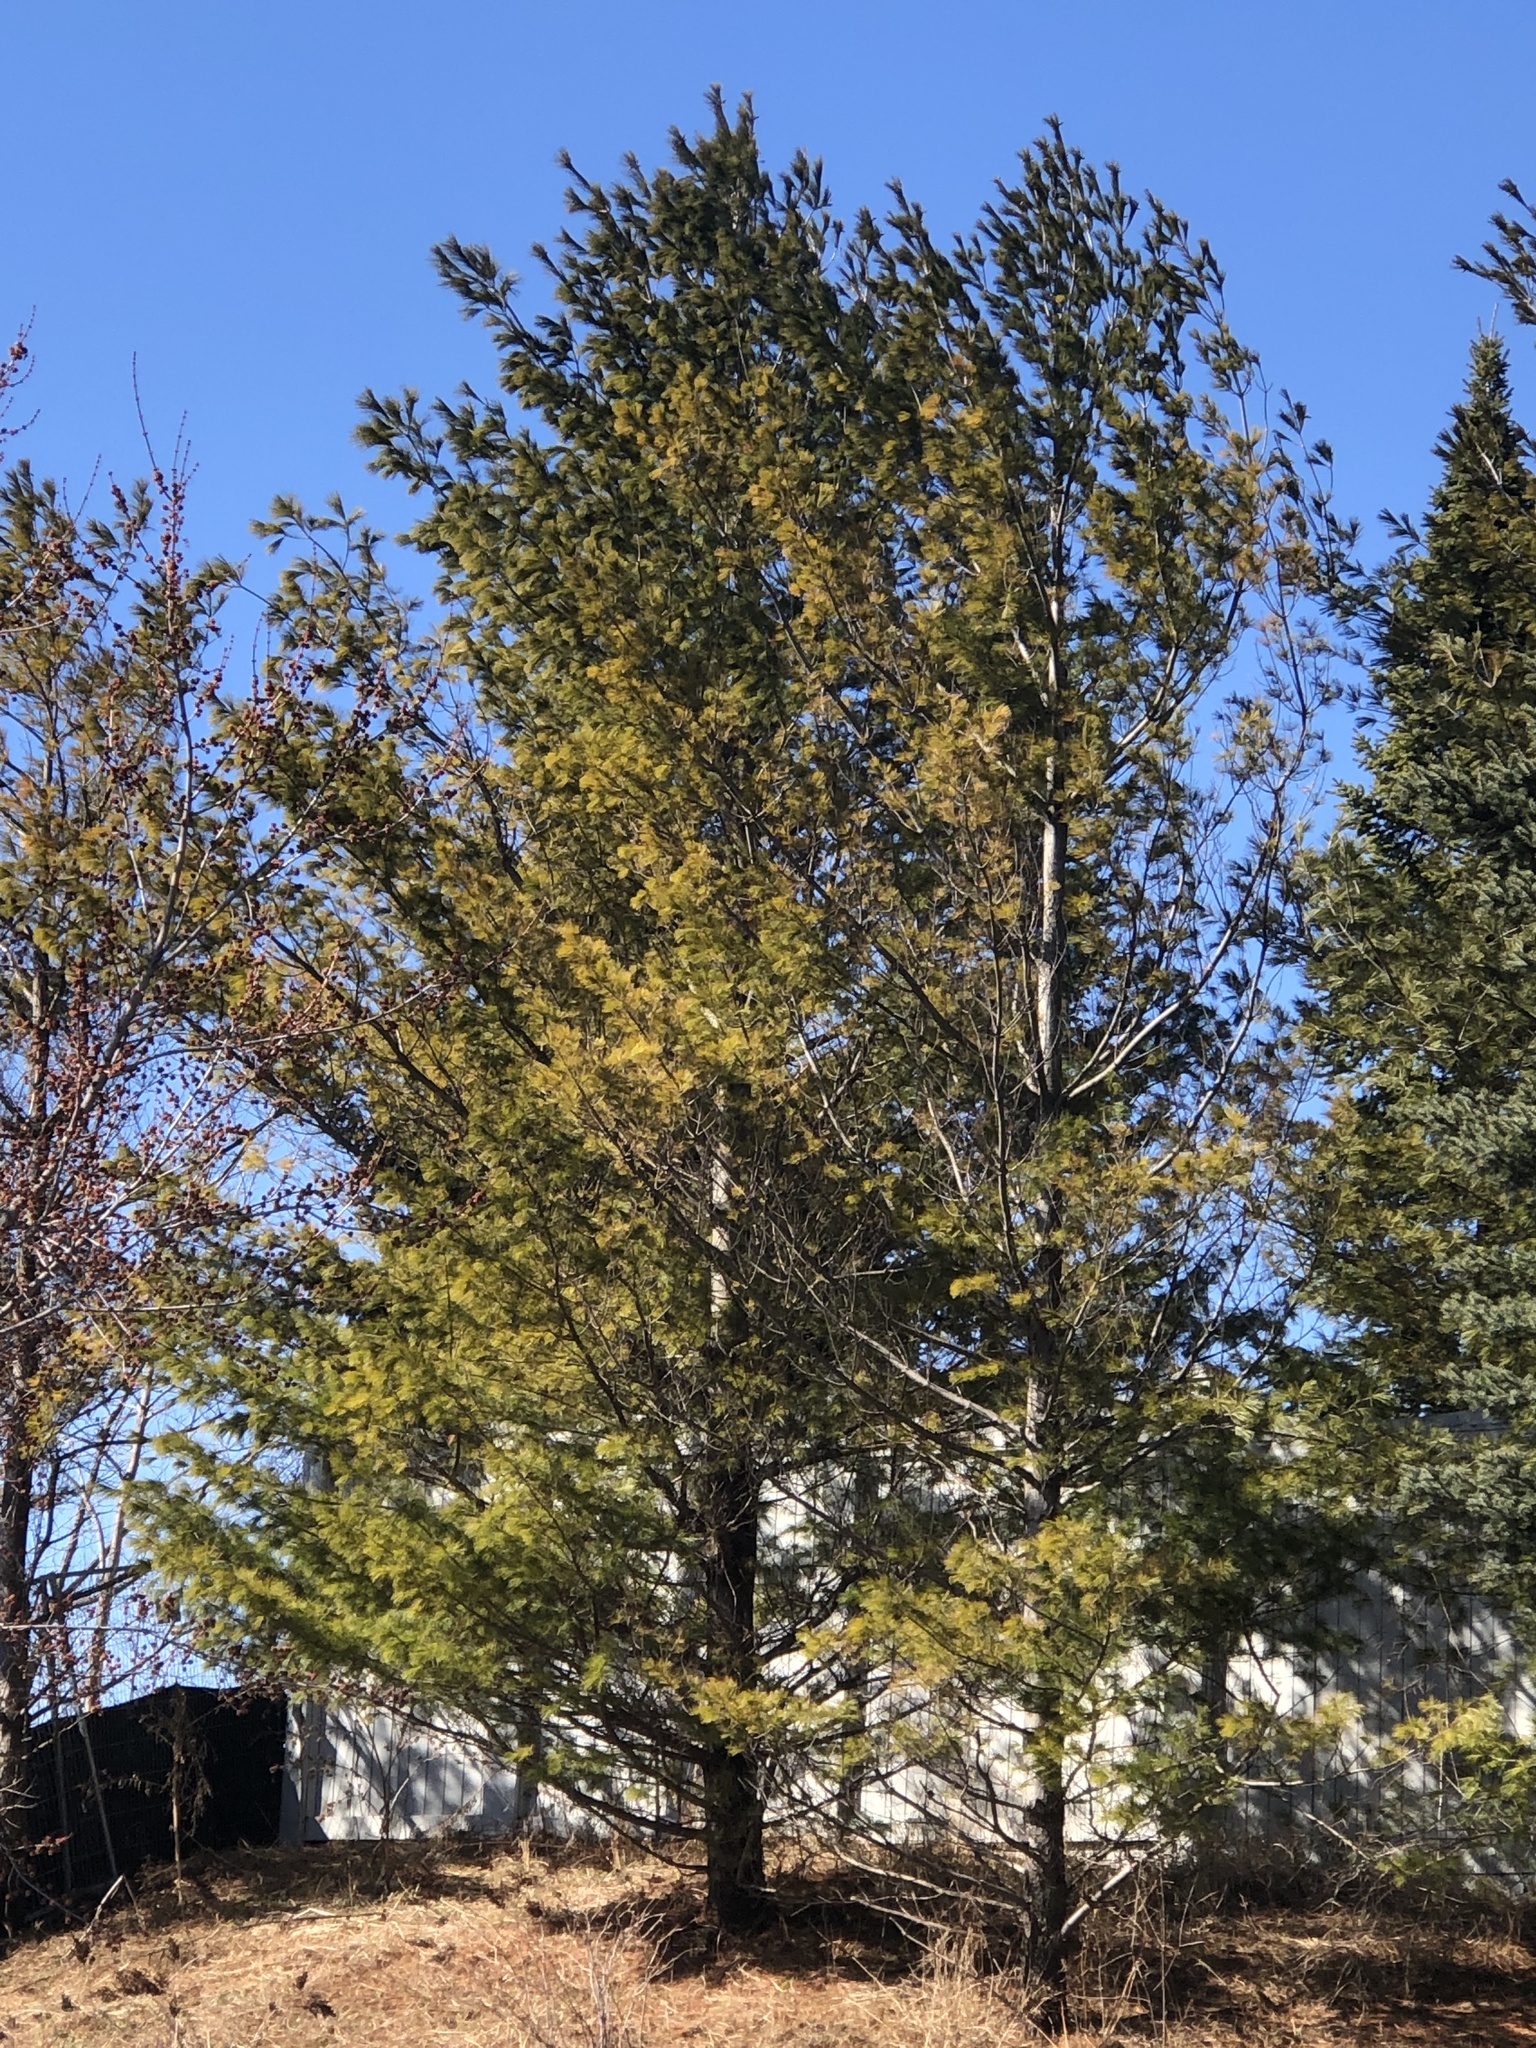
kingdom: Plantae
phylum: Tracheophyta
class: Pinopsida
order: Pinales
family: Pinaceae
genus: Pinus
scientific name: Pinus strobus
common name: Weymouth pine
